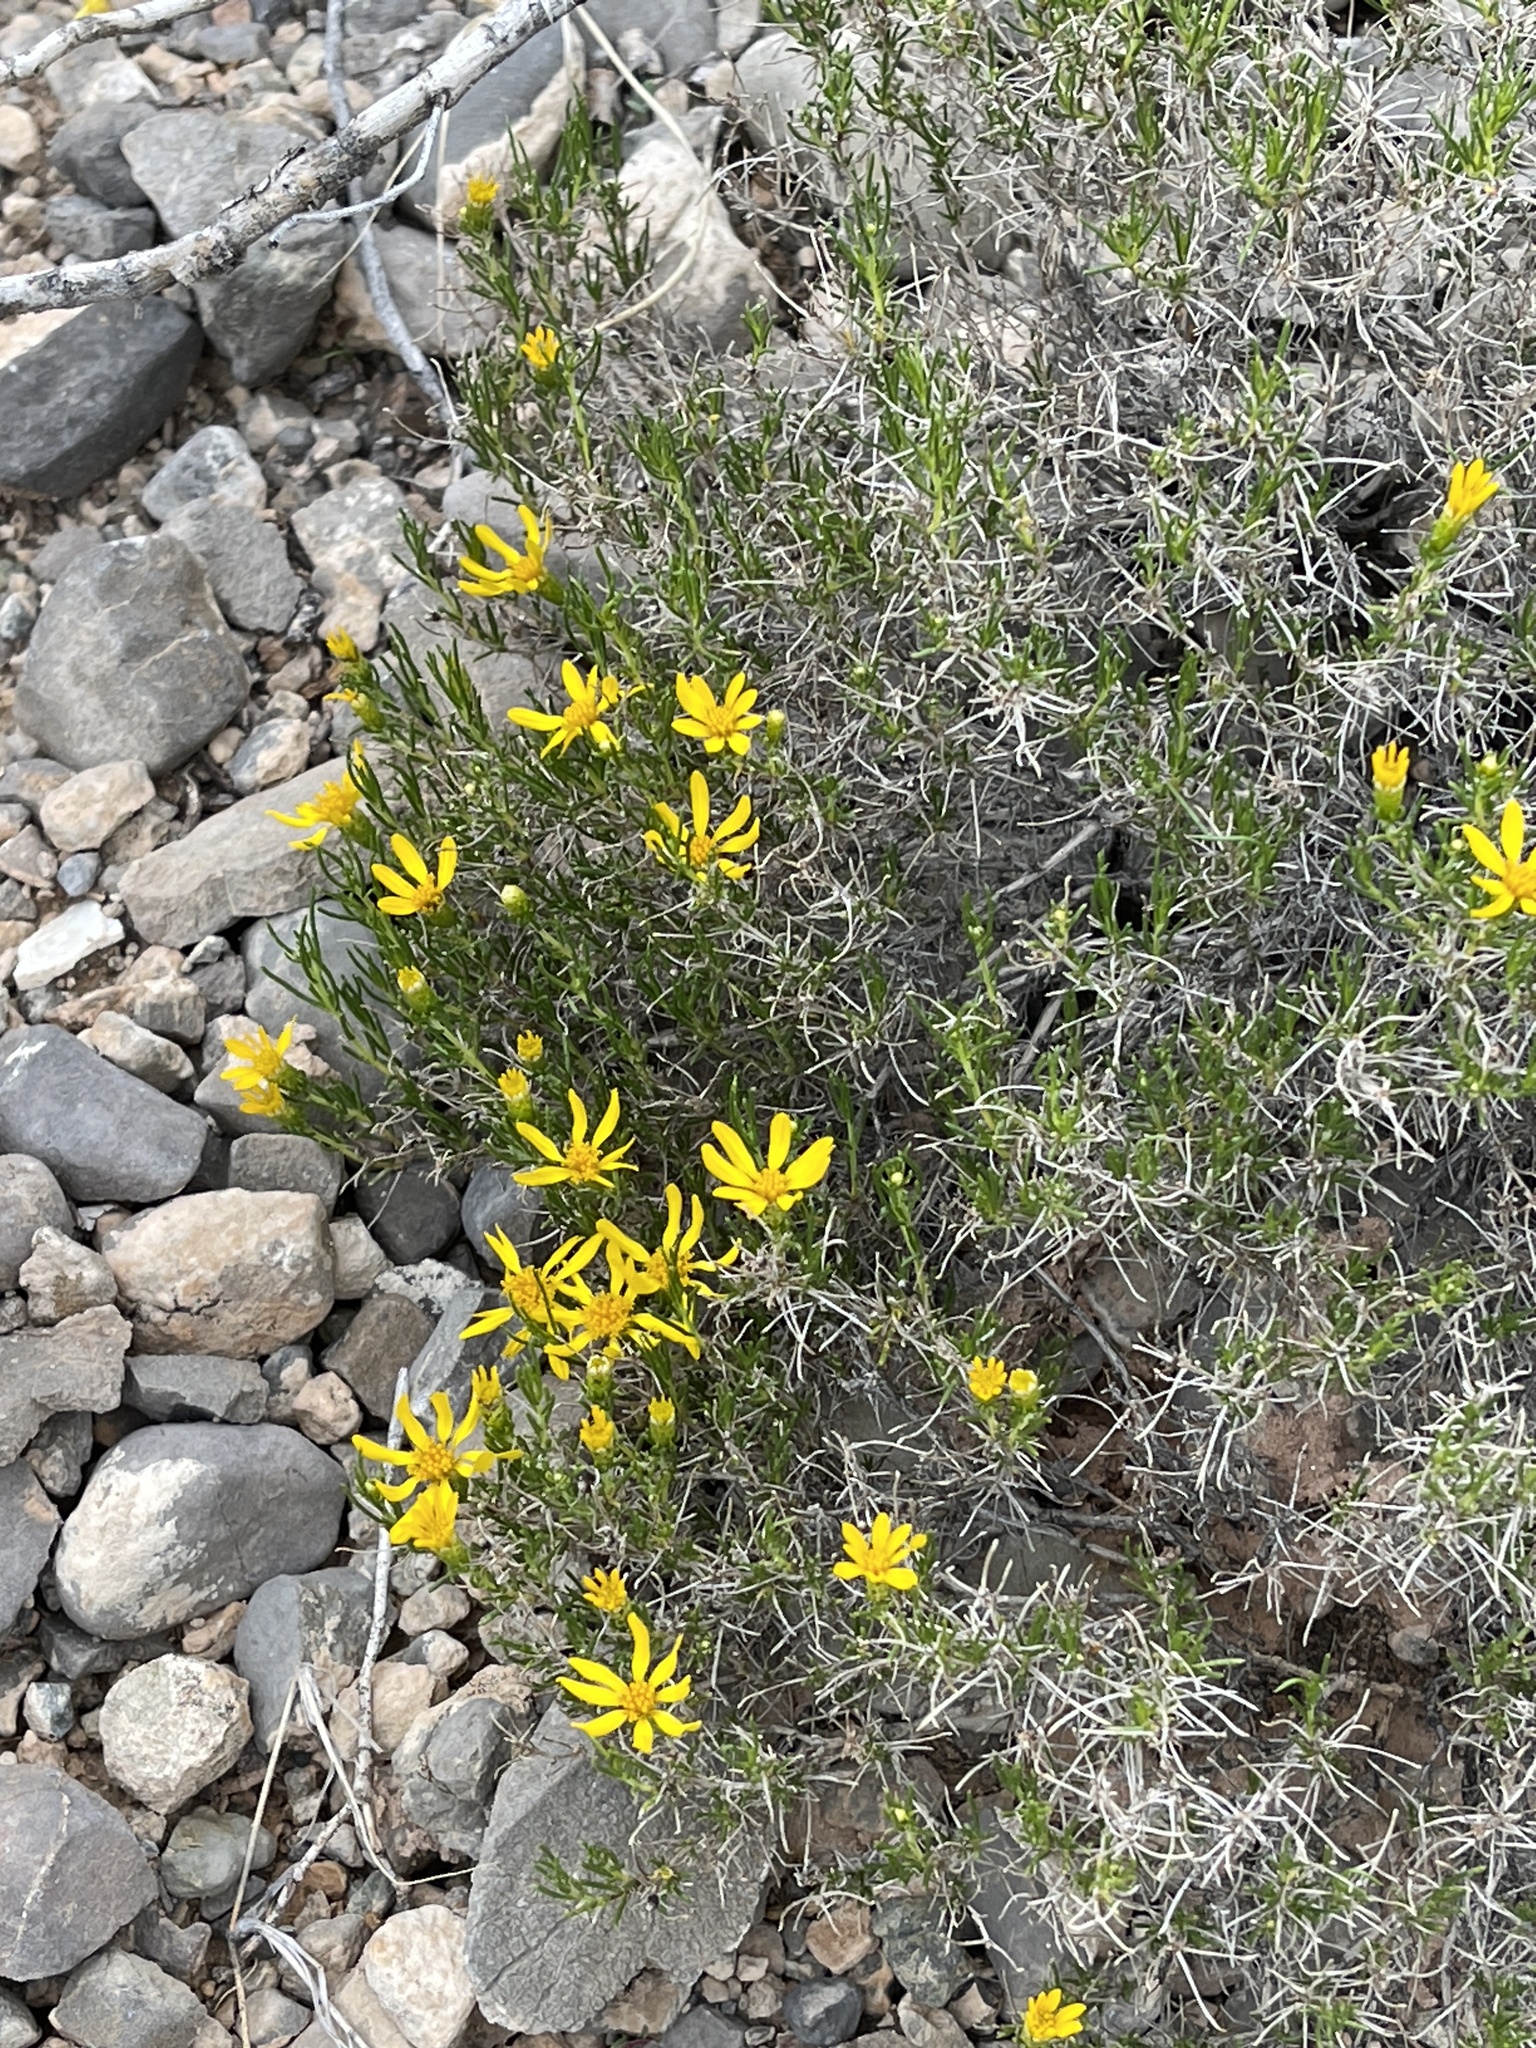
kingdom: Plantae
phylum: Tracheophyta
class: Magnoliopsida
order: Asterales
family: Asteraceae
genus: Thymophylla
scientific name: Thymophylla acerosa
